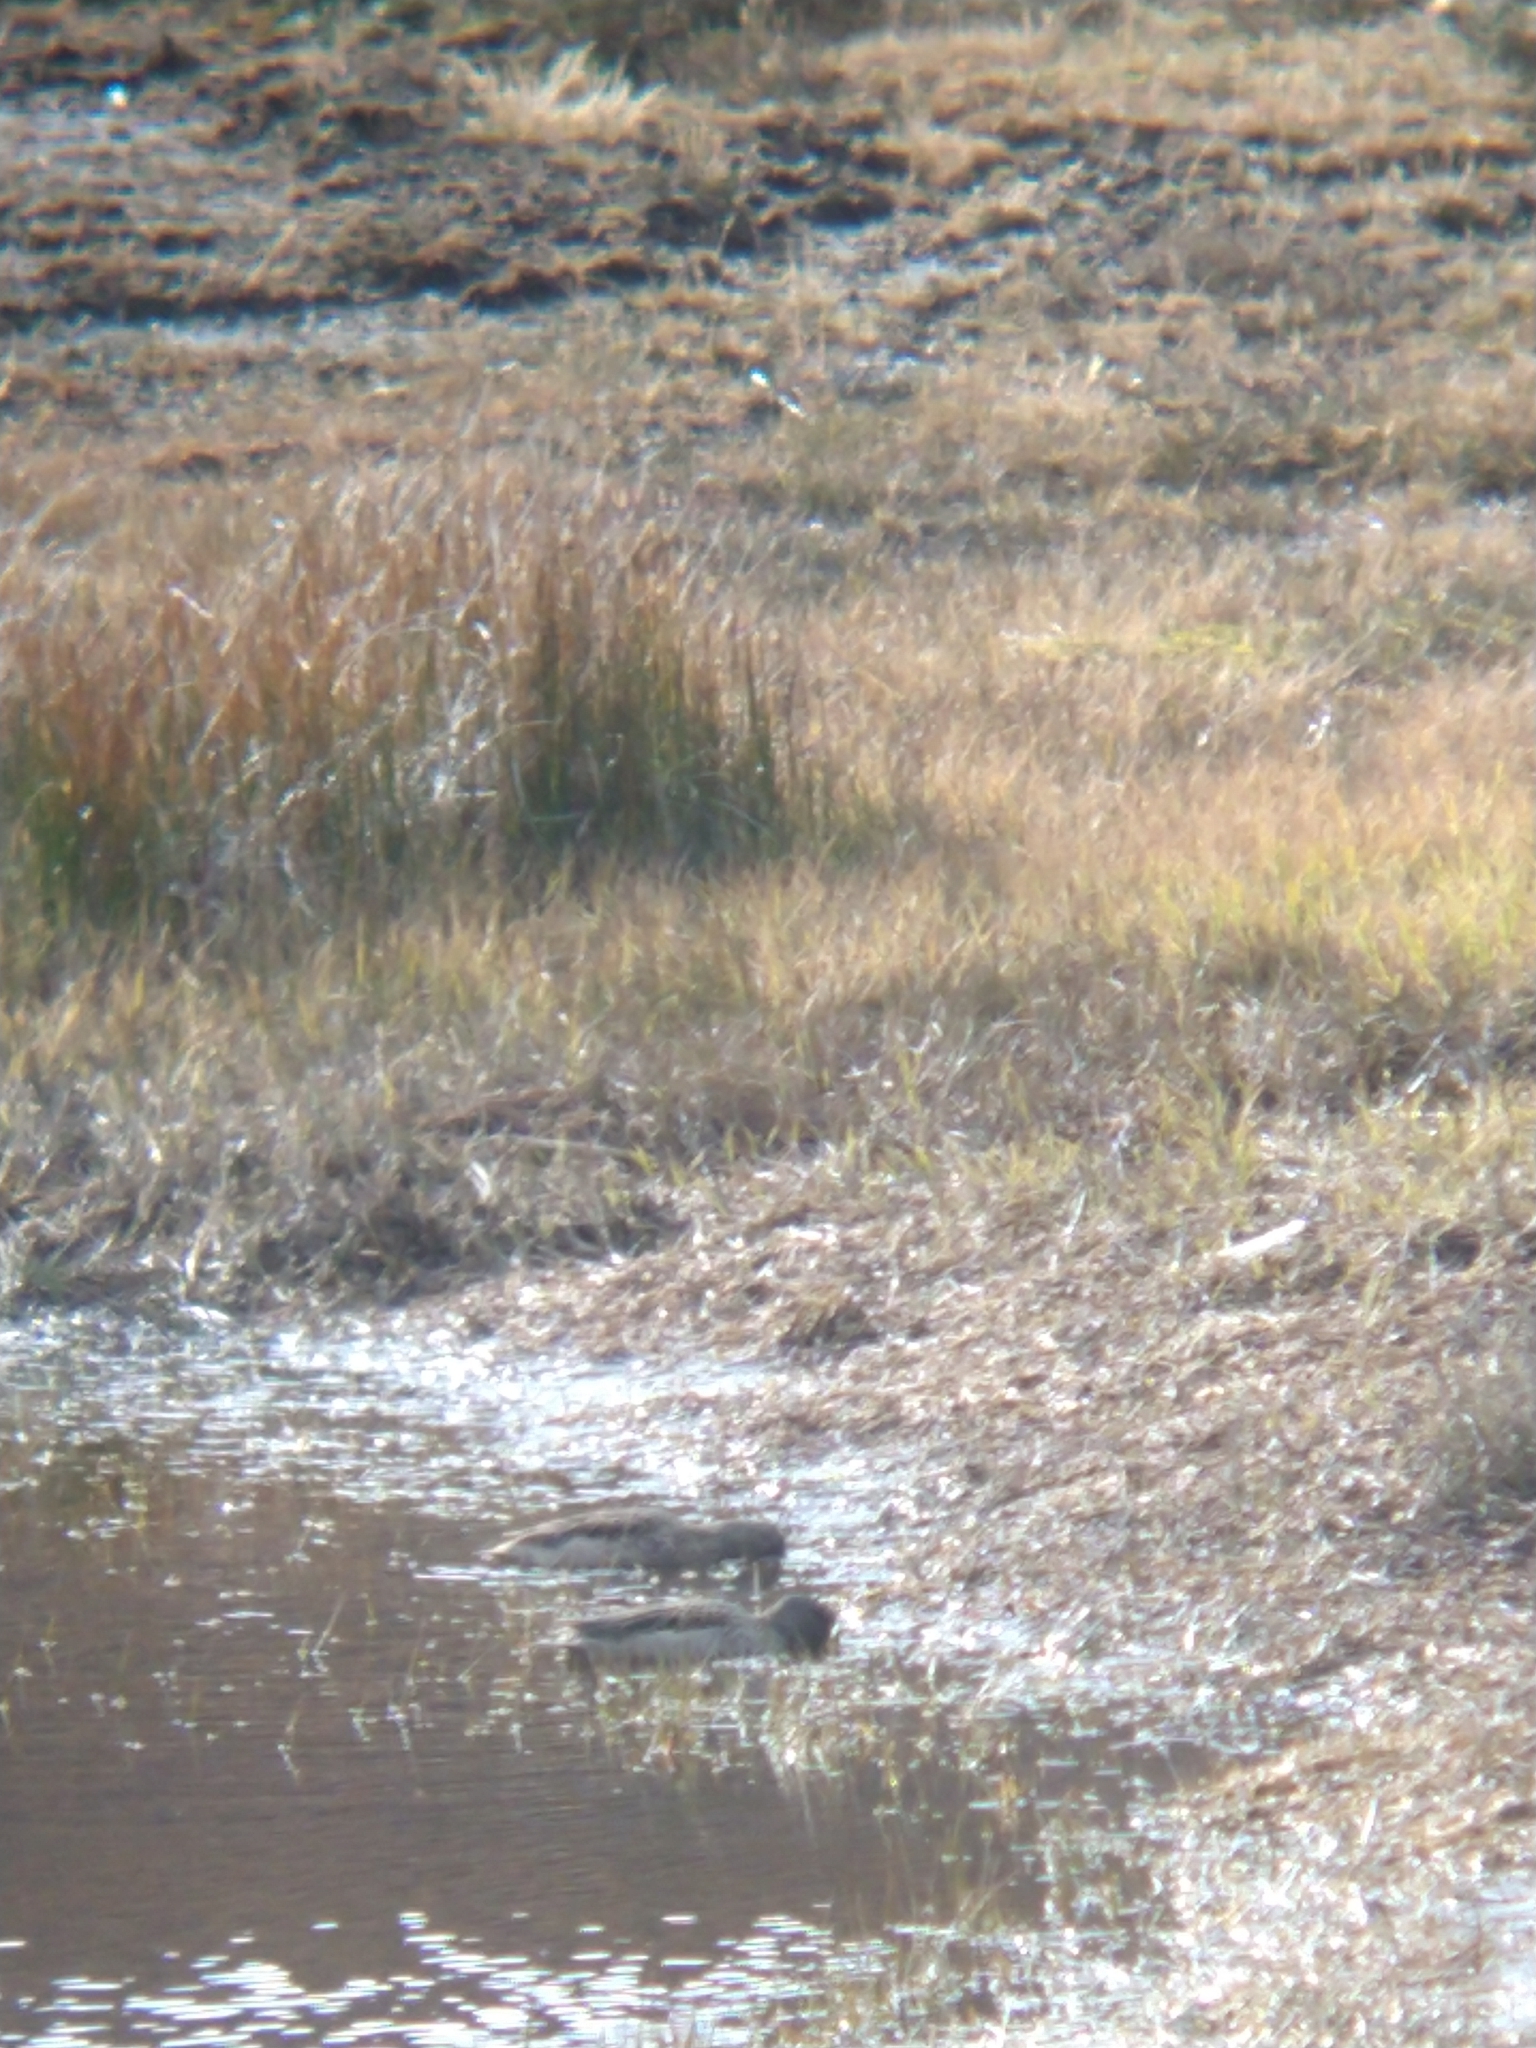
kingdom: Animalia
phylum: Chordata
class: Aves
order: Anseriformes
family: Anatidae
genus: Anas
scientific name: Anas flavirostris
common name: Yellow-billed teal
